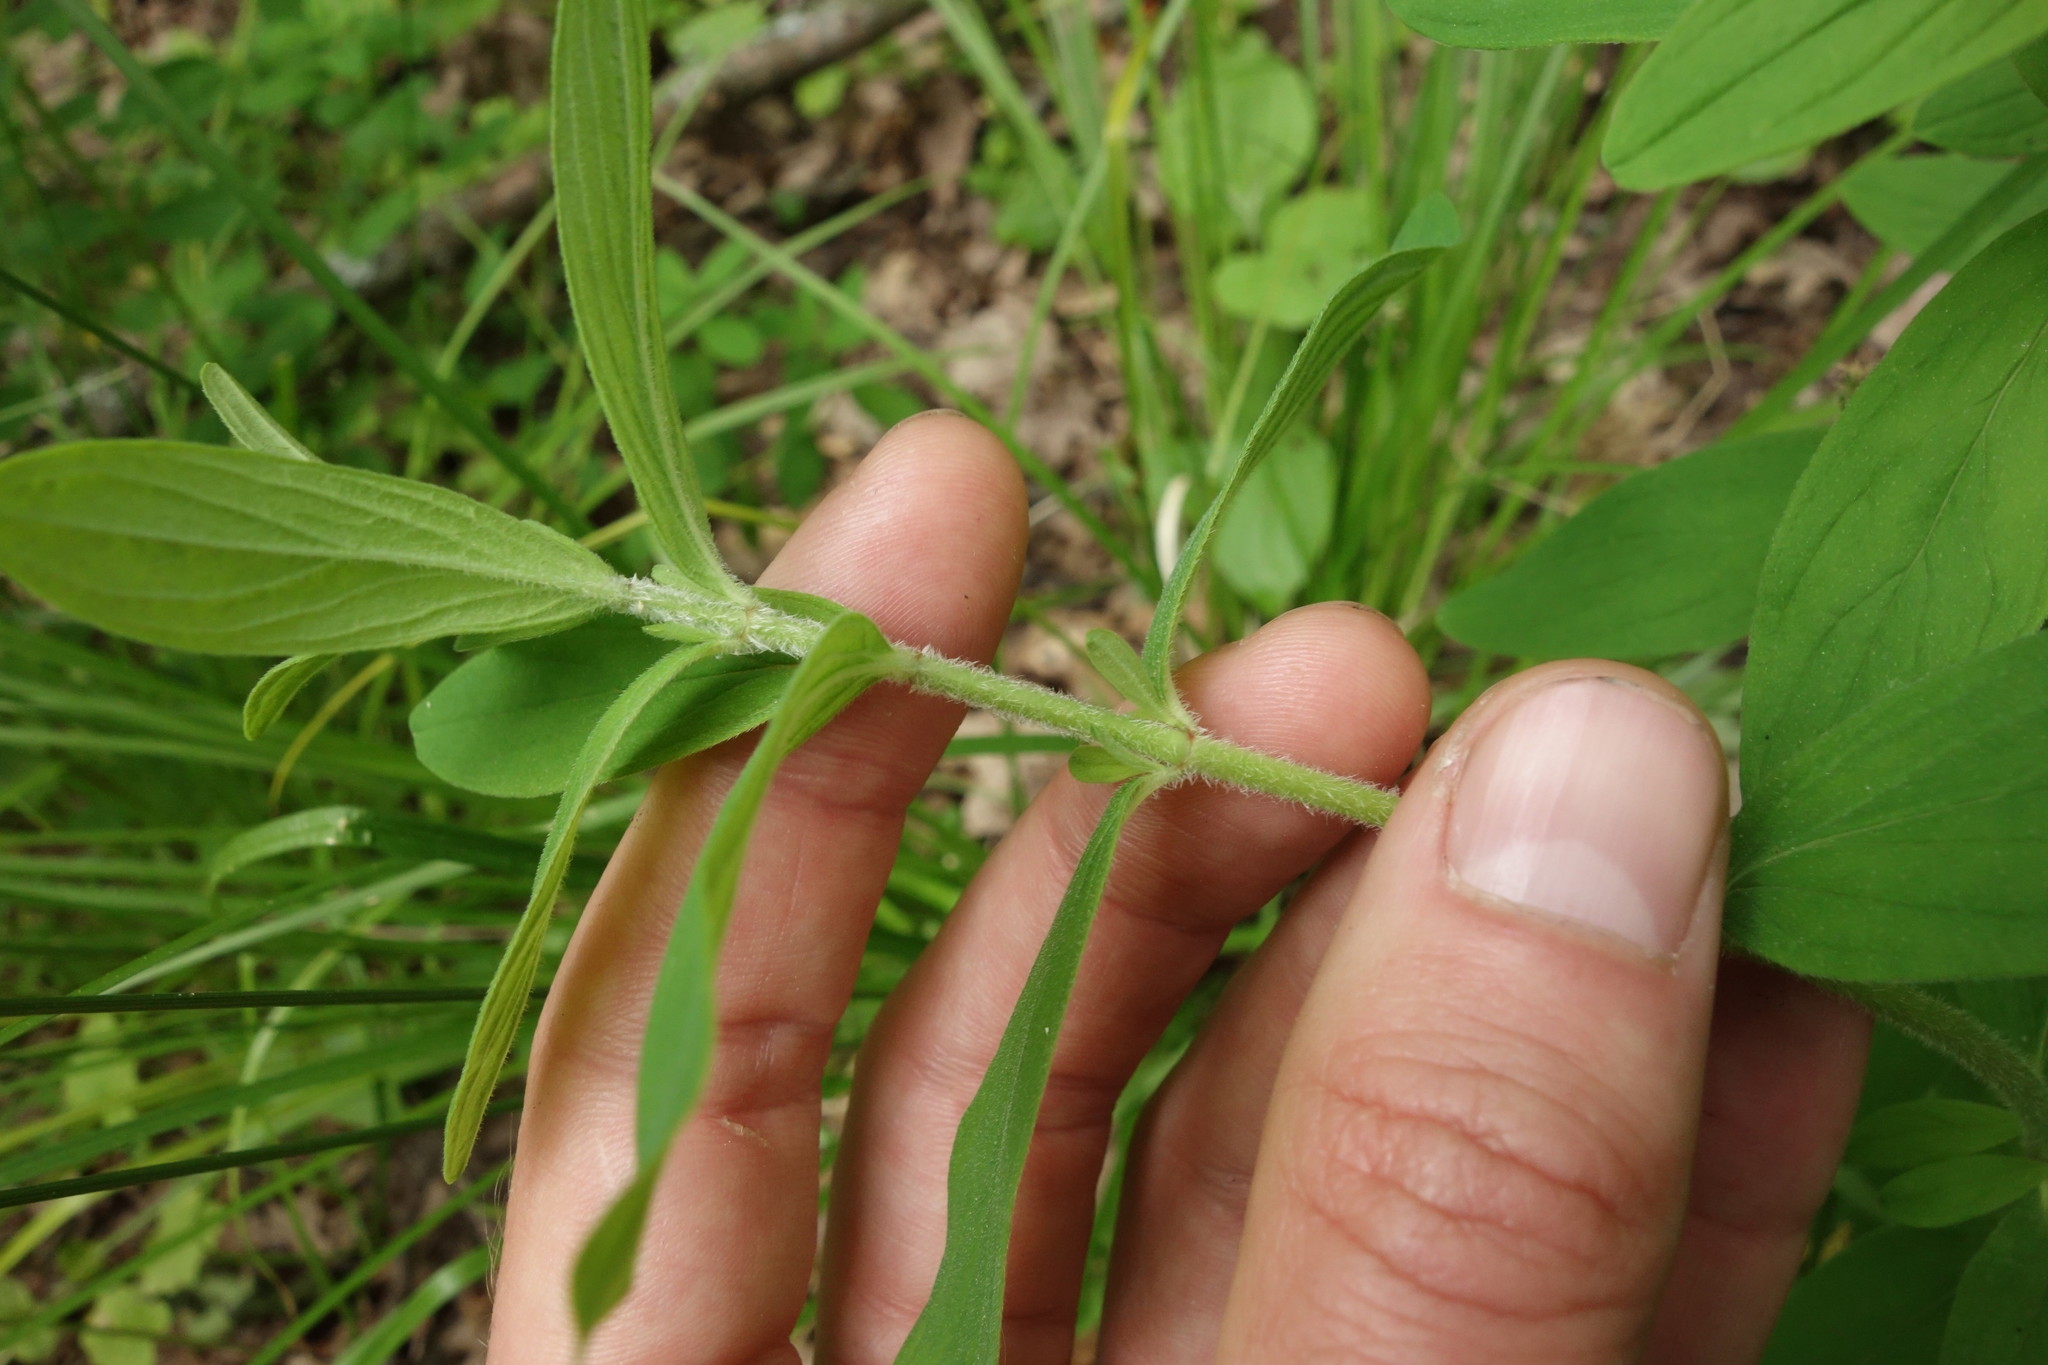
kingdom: Plantae
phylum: Tracheophyta
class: Magnoliopsida
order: Malpighiales
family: Hypericaceae
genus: Hypericum
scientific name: Hypericum hirsutum
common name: Hairy st. john's-wort
